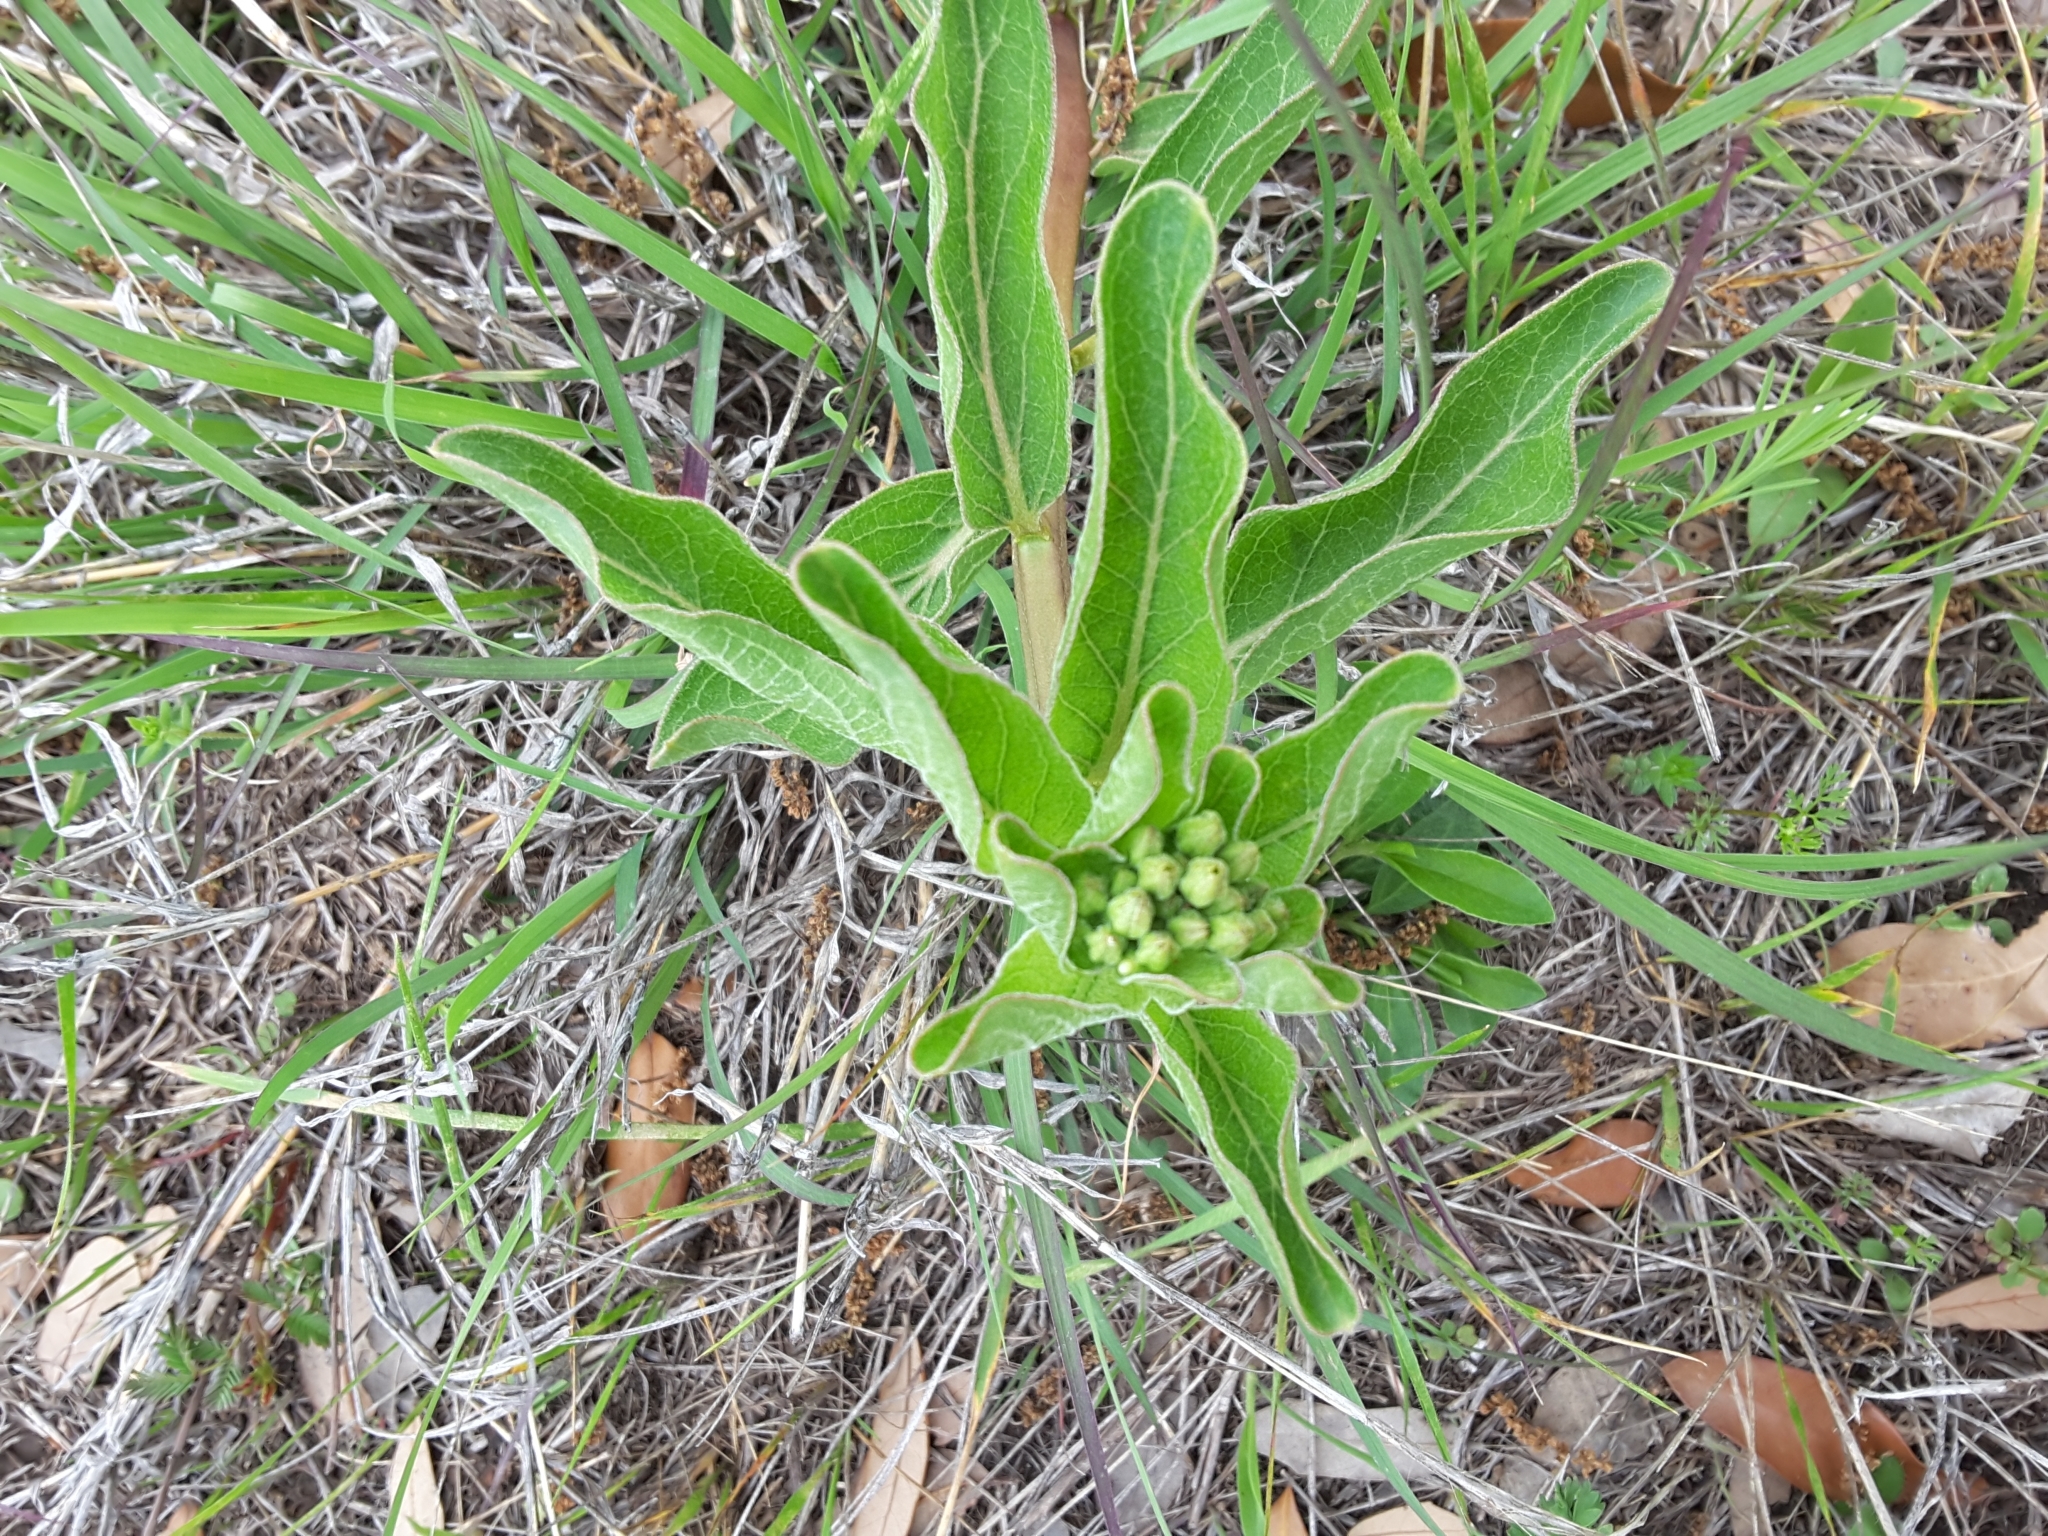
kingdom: Plantae
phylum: Tracheophyta
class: Magnoliopsida
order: Gentianales
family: Apocynaceae
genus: Asclepias
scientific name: Asclepias viridis
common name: Antelope-horns
